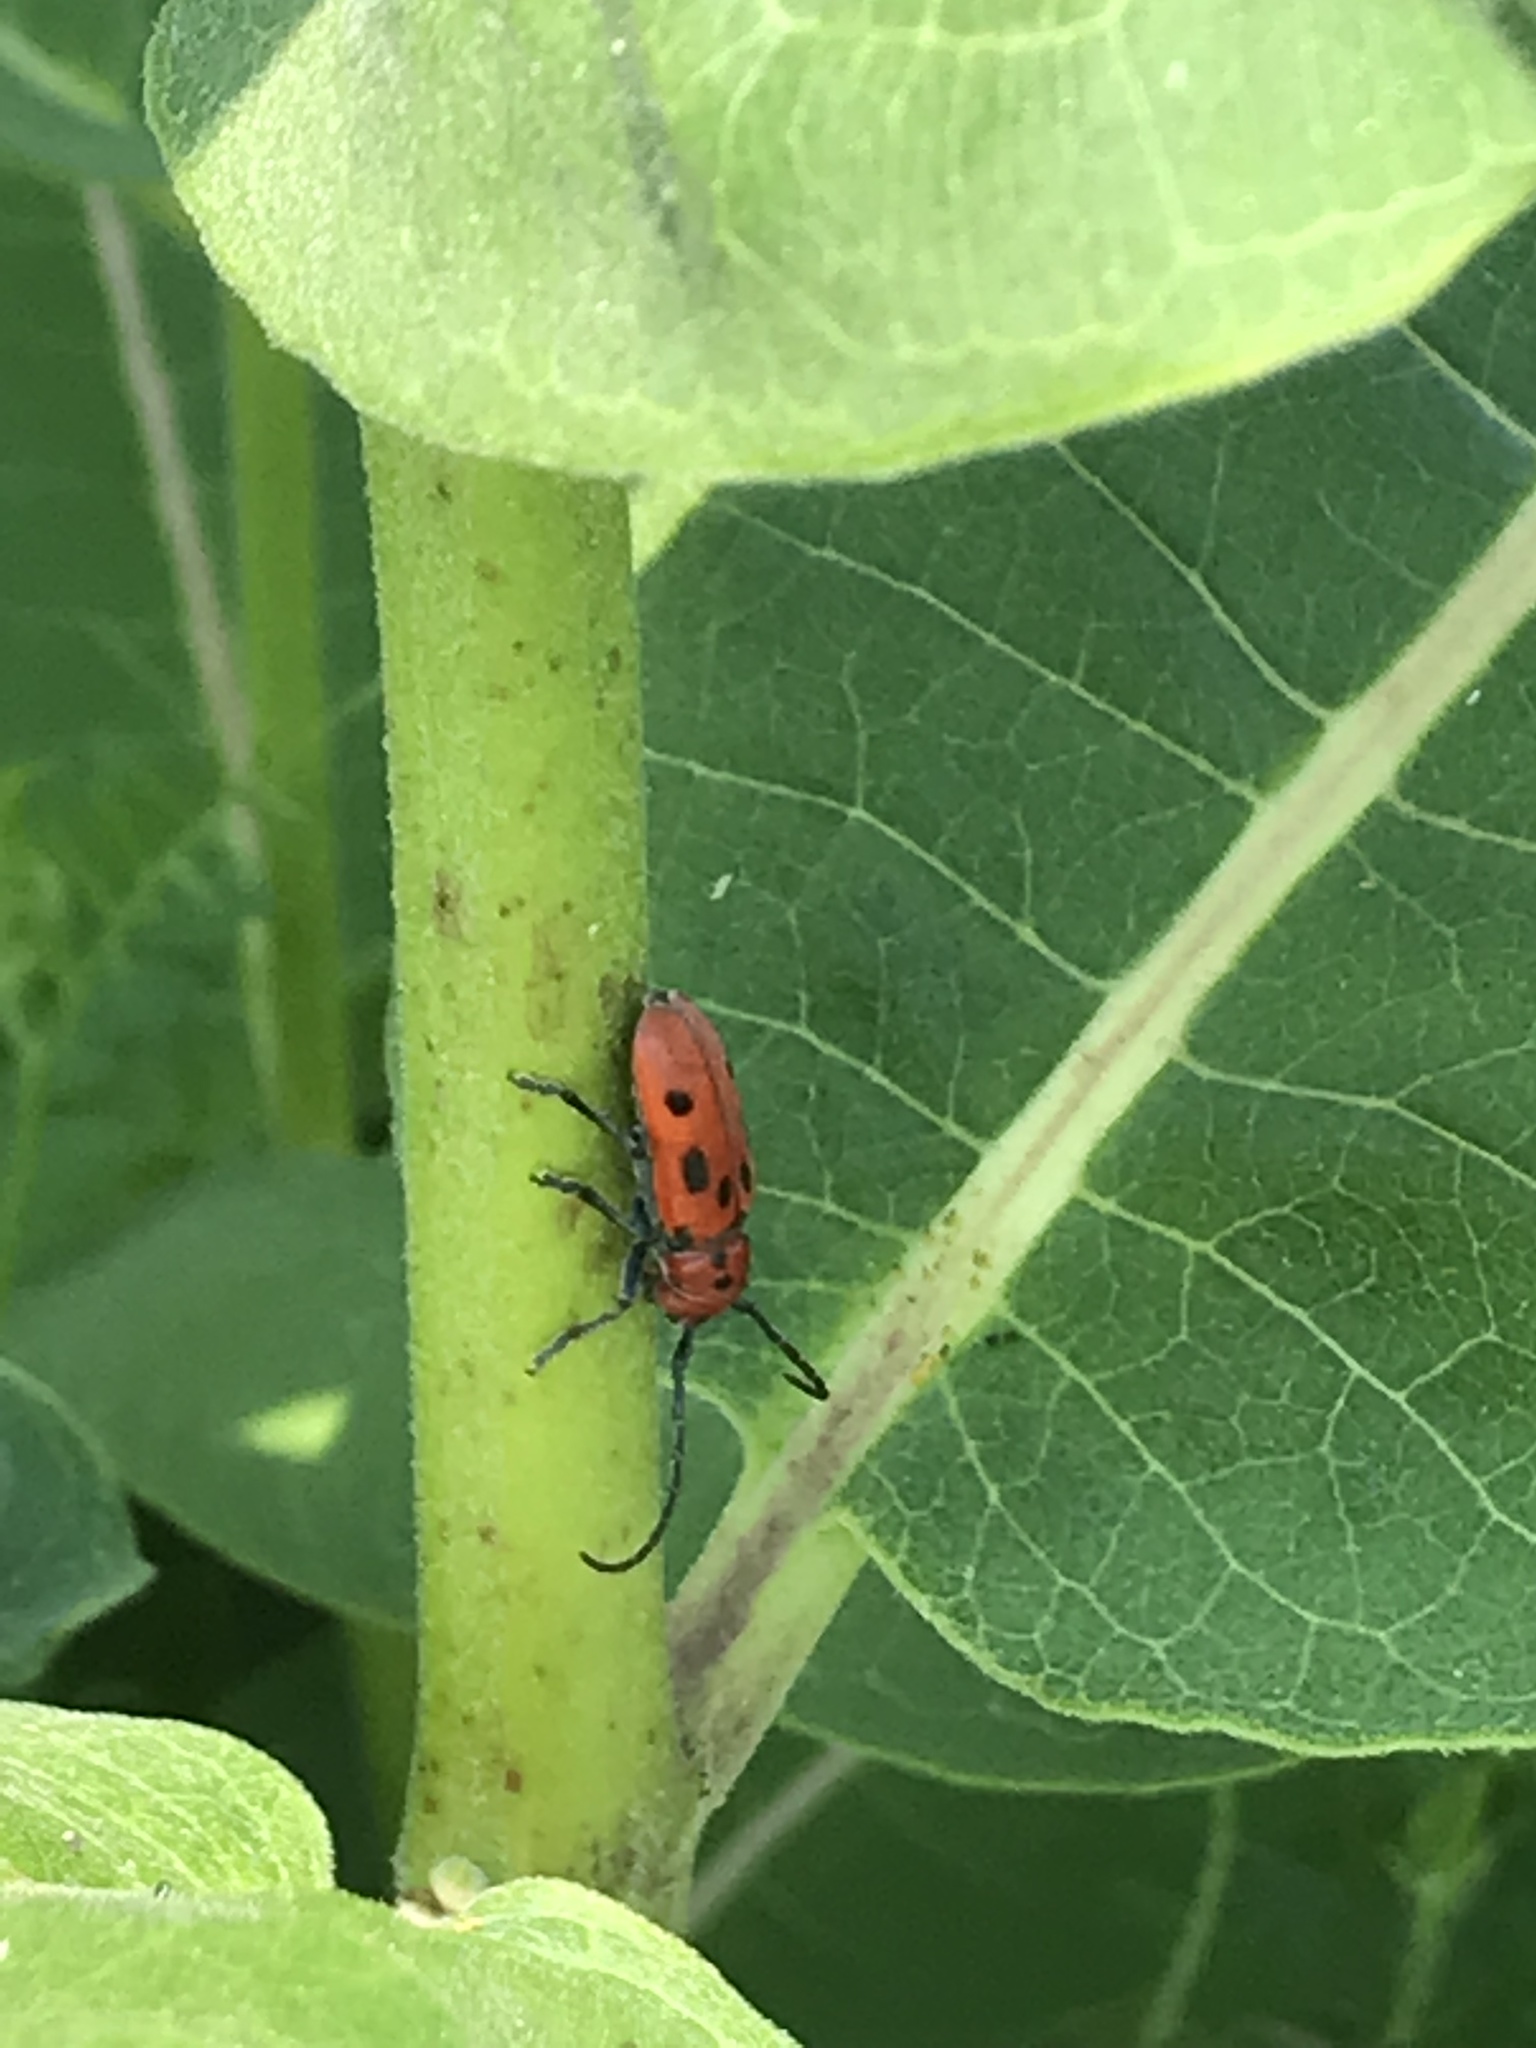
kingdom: Animalia
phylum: Arthropoda
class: Insecta
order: Coleoptera
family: Cerambycidae
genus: Tetraopes
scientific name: Tetraopes tetrophthalmus
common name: Red milkweed beetle
